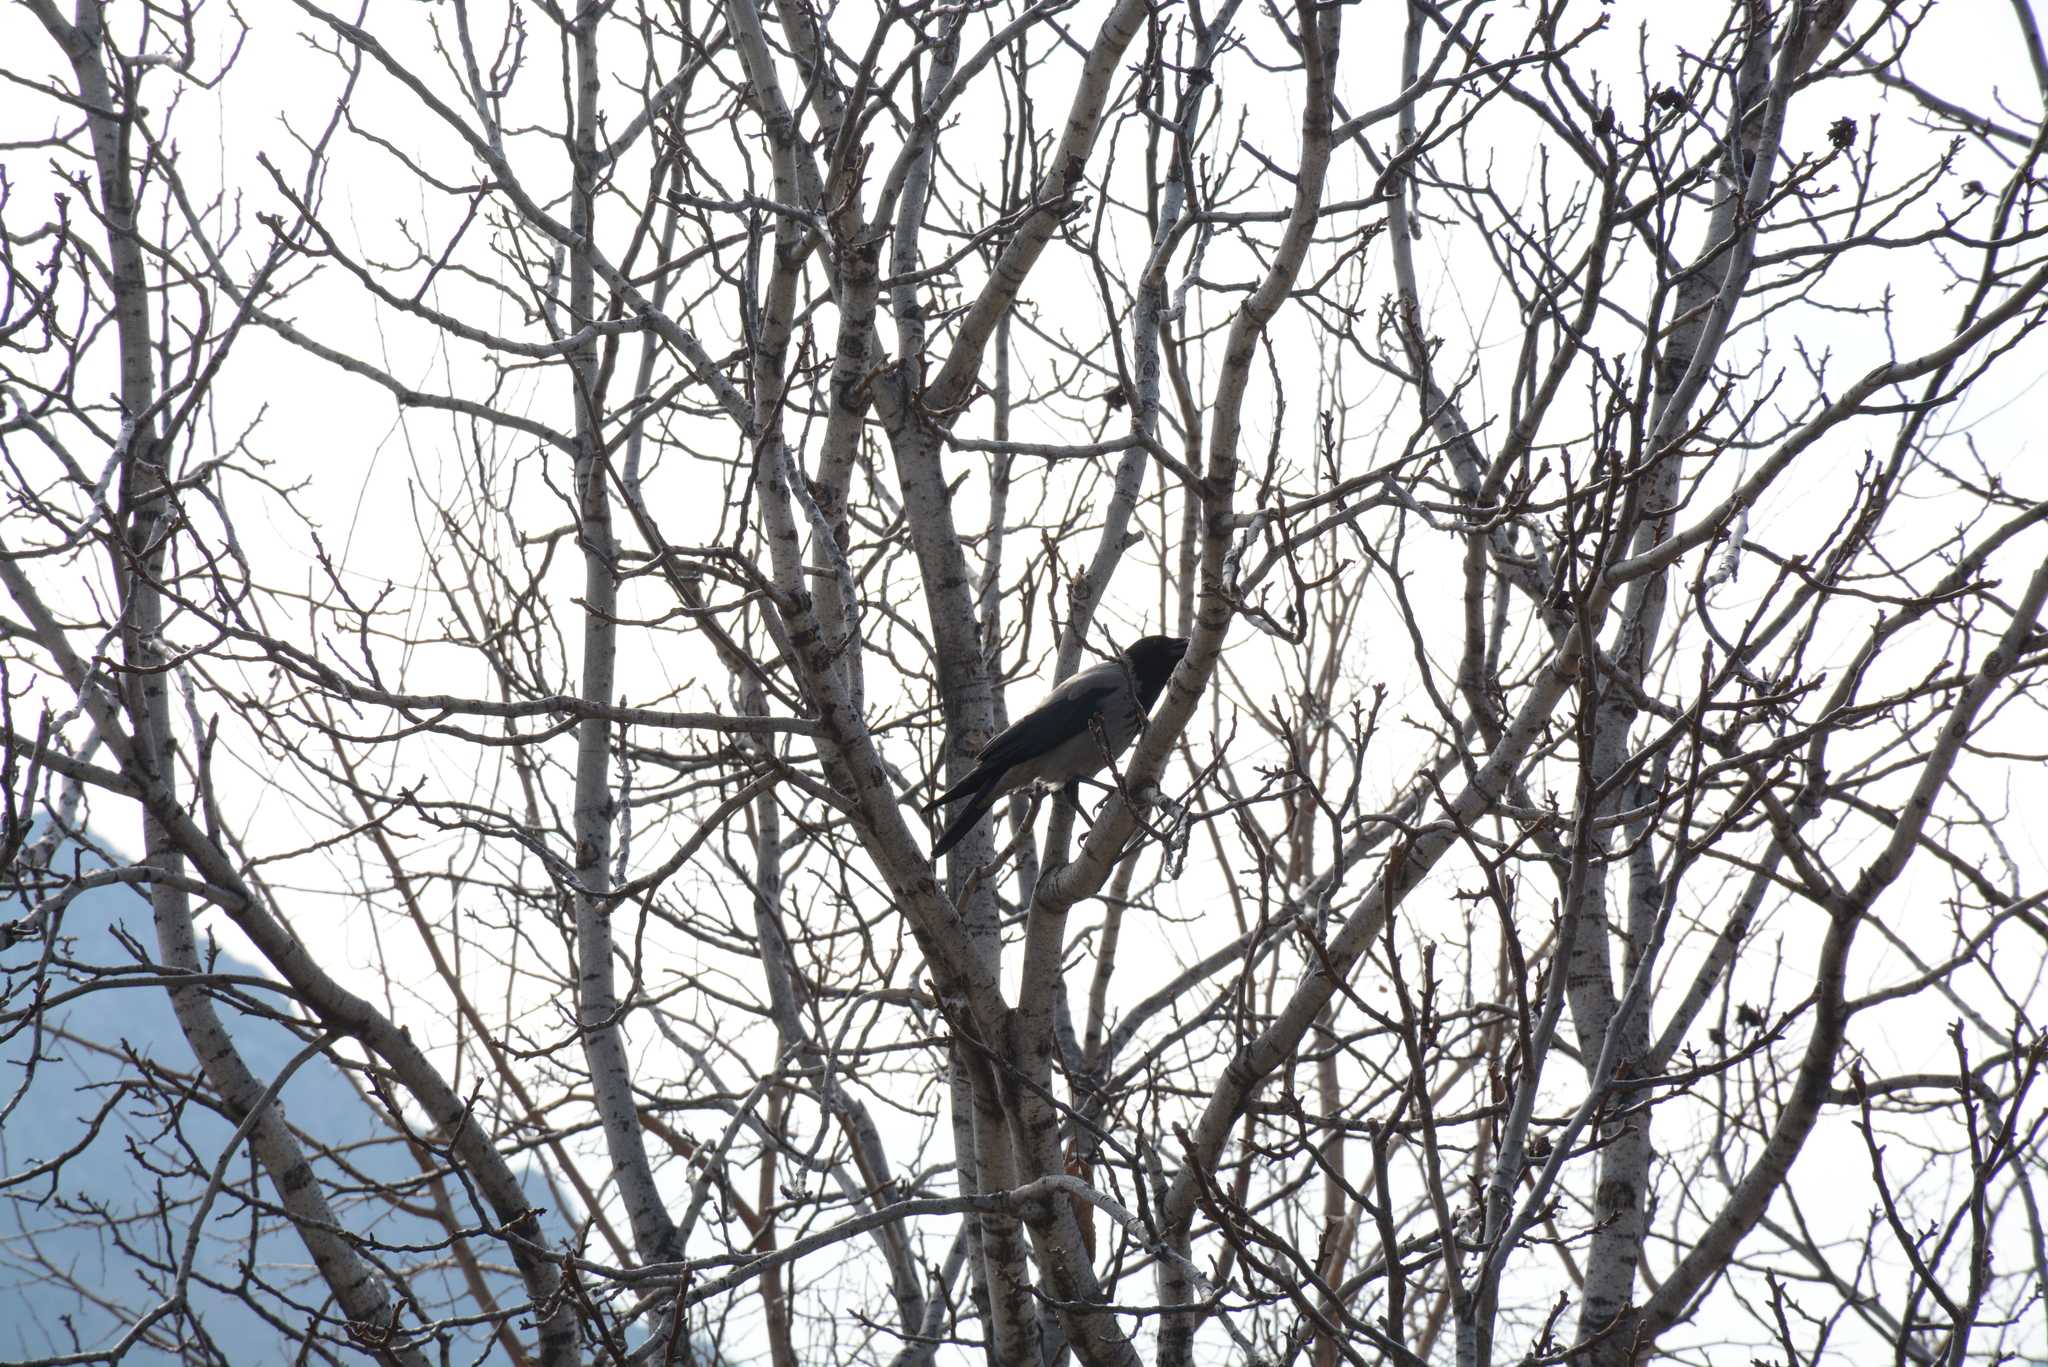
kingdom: Animalia
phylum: Chordata
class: Aves
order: Passeriformes
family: Corvidae
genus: Corvus
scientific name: Corvus cornix
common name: Hooded crow
